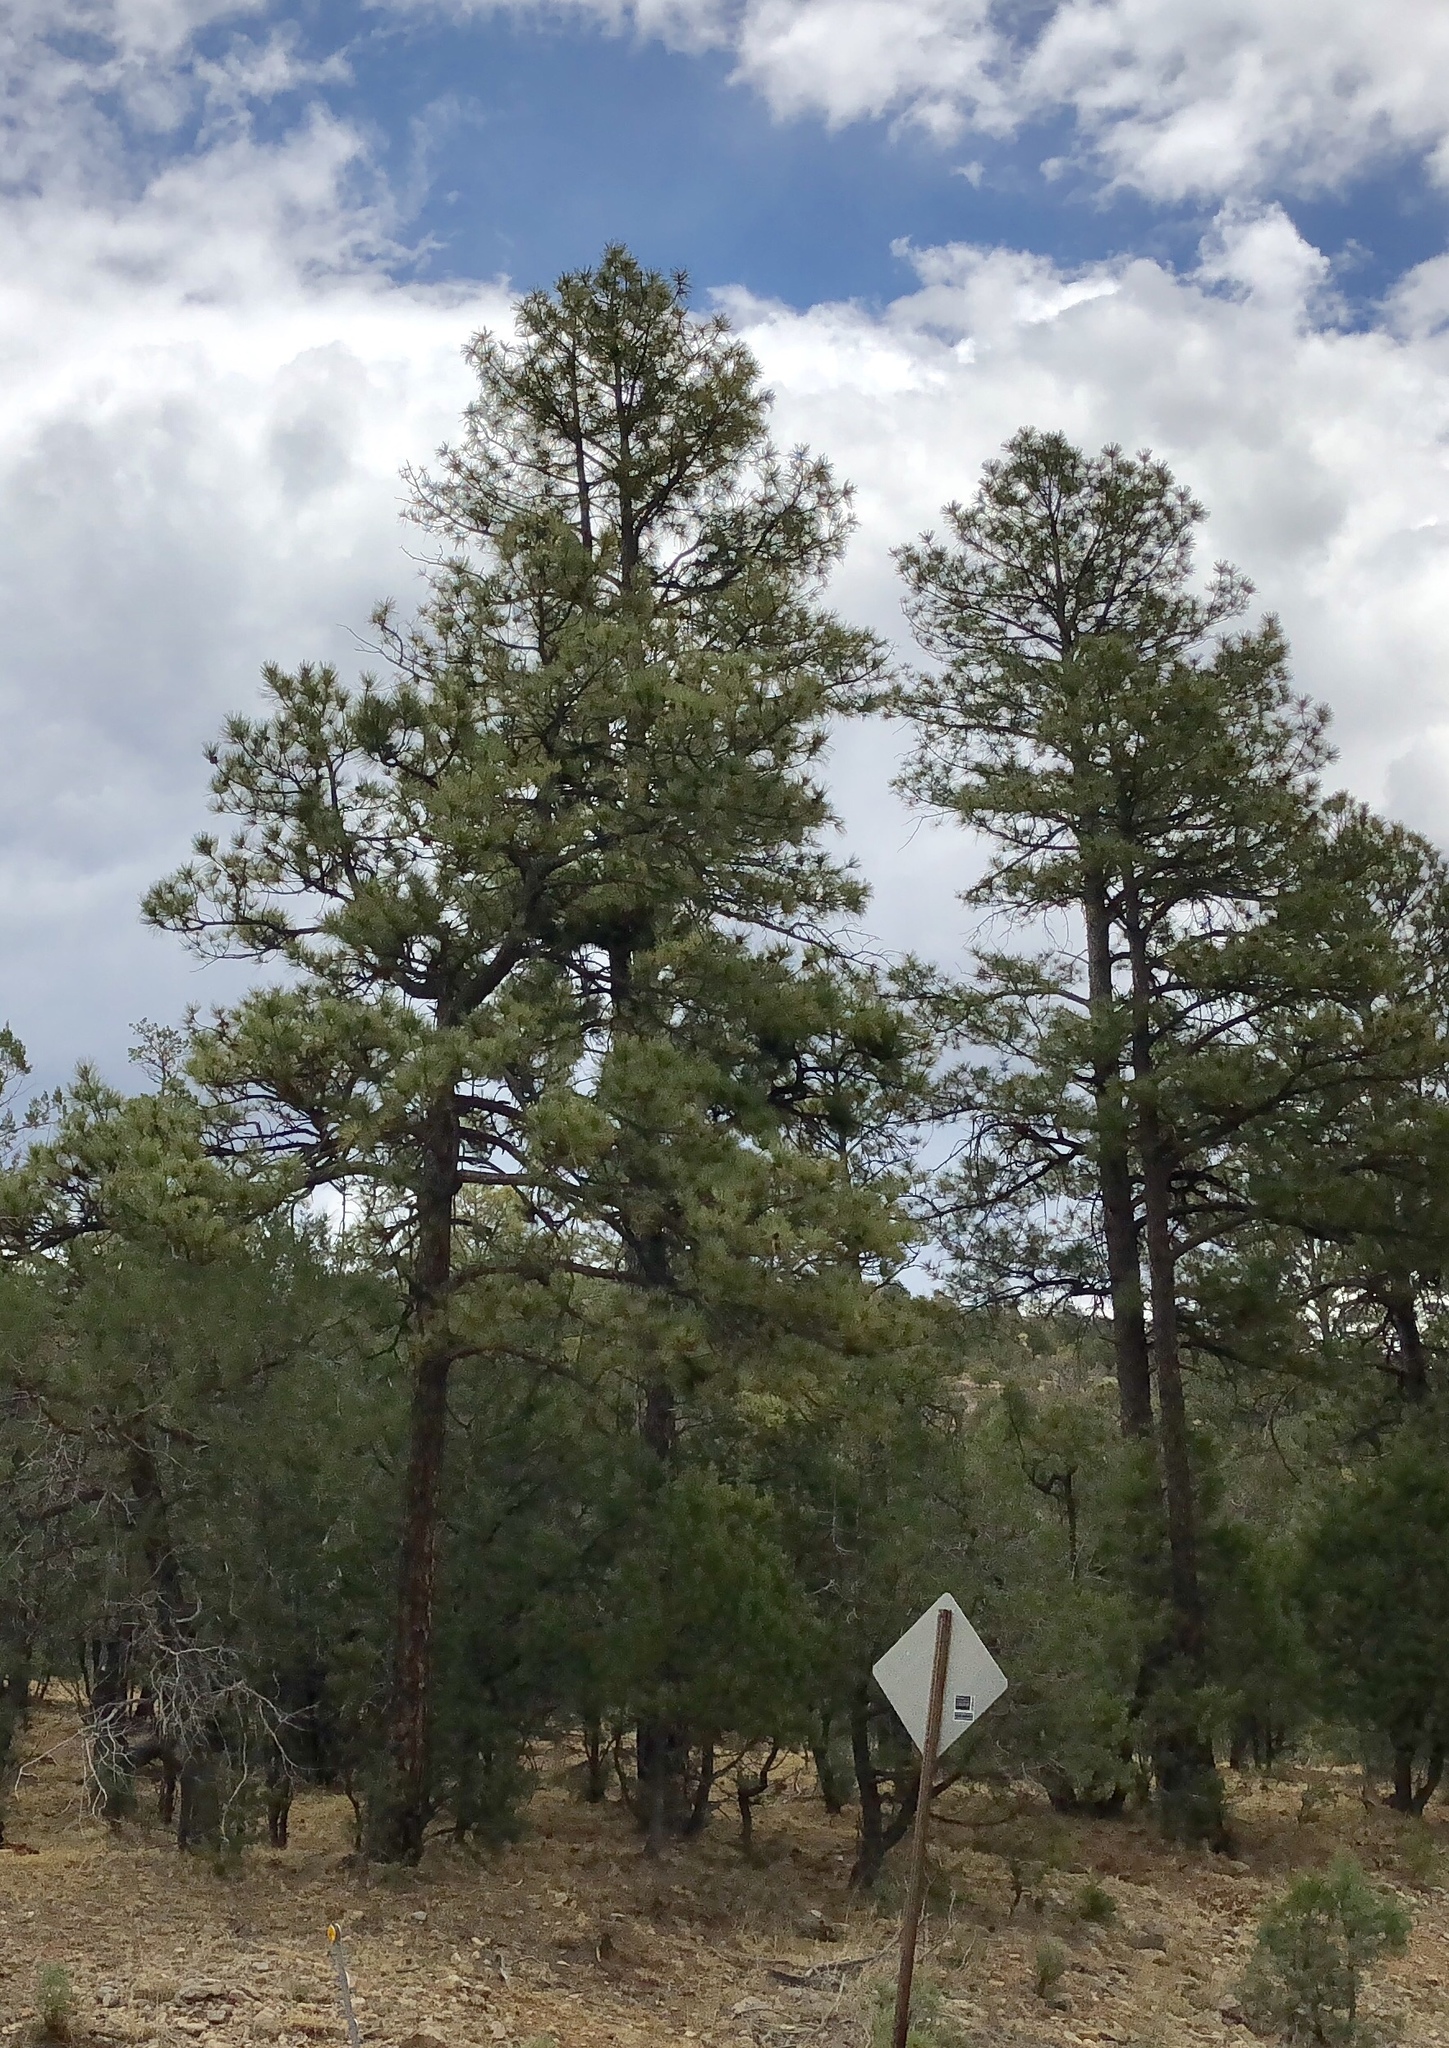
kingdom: Plantae
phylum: Tracheophyta
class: Pinopsida
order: Pinales
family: Pinaceae
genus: Pinus
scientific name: Pinus ponderosa
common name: Western yellow-pine
